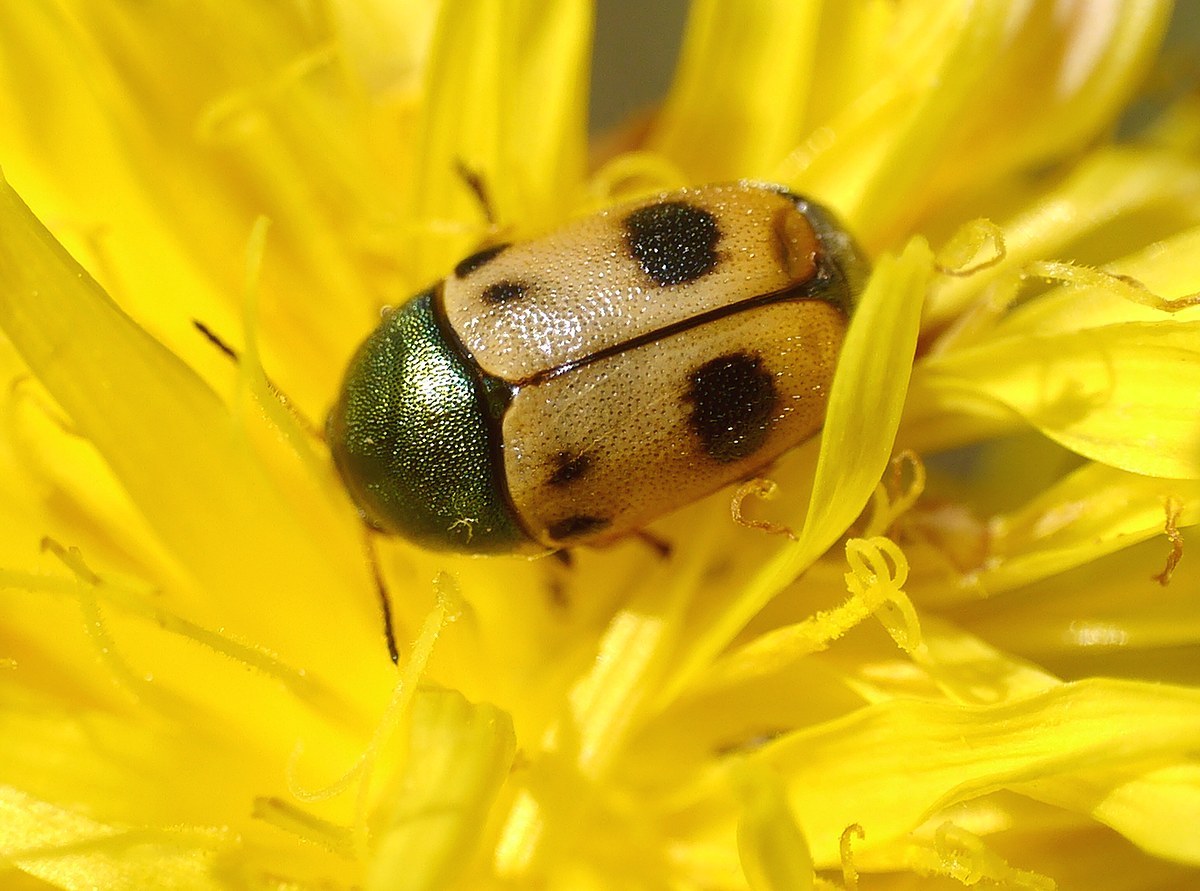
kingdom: Animalia
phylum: Arthropoda
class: Insecta
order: Coleoptera
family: Chrysomelidae
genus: Cryptocephalus
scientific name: Cryptocephalus laetus
